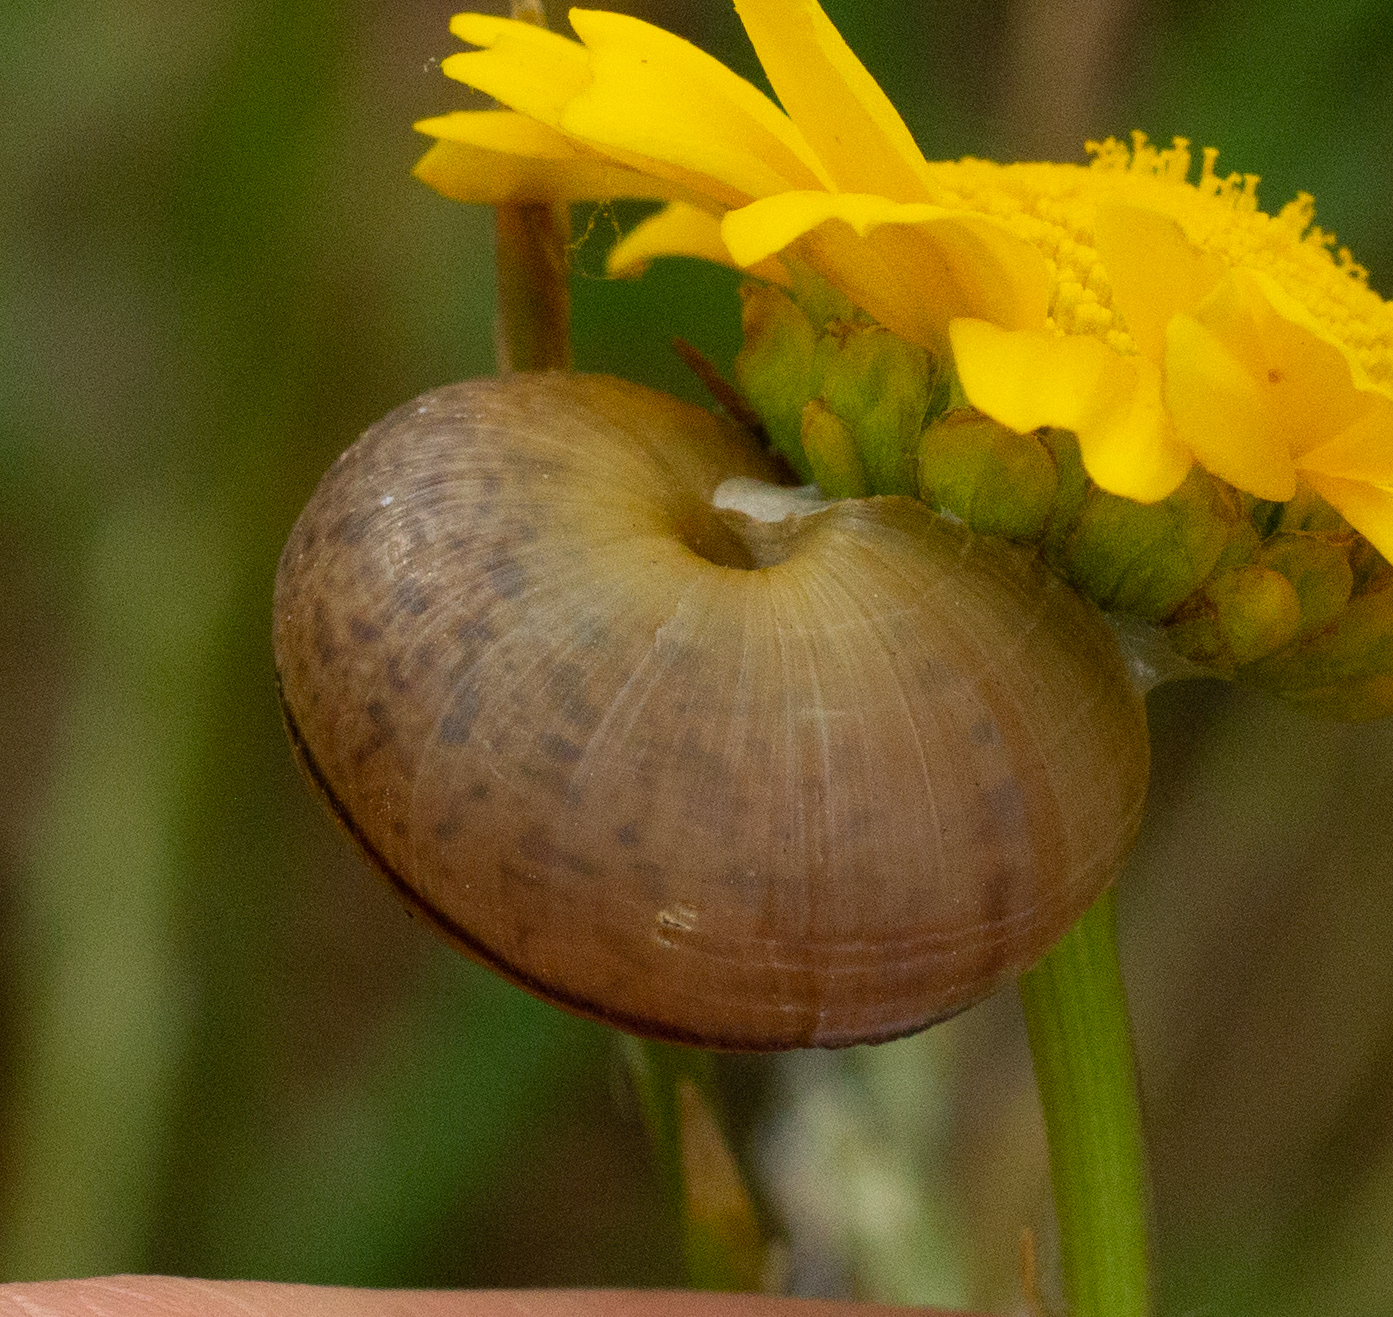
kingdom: Animalia
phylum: Mollusca
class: Gastropoda
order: Stylommatophora
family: Hygromiidae
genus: Portugala
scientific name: Portugala inchoata
